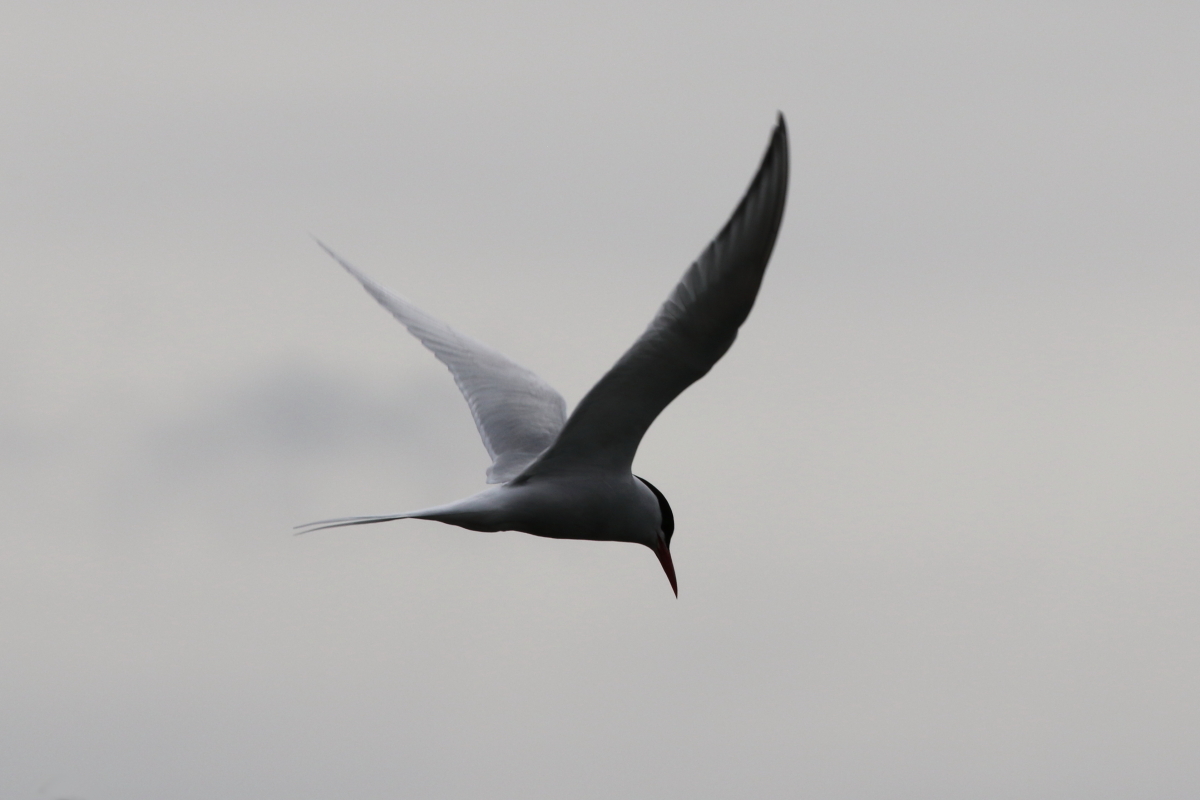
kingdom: Animalia
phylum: Chordata
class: Aves
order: Charadriiformes
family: Laridae
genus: Sterna
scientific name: Sterna hirundinacea
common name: South american tern
